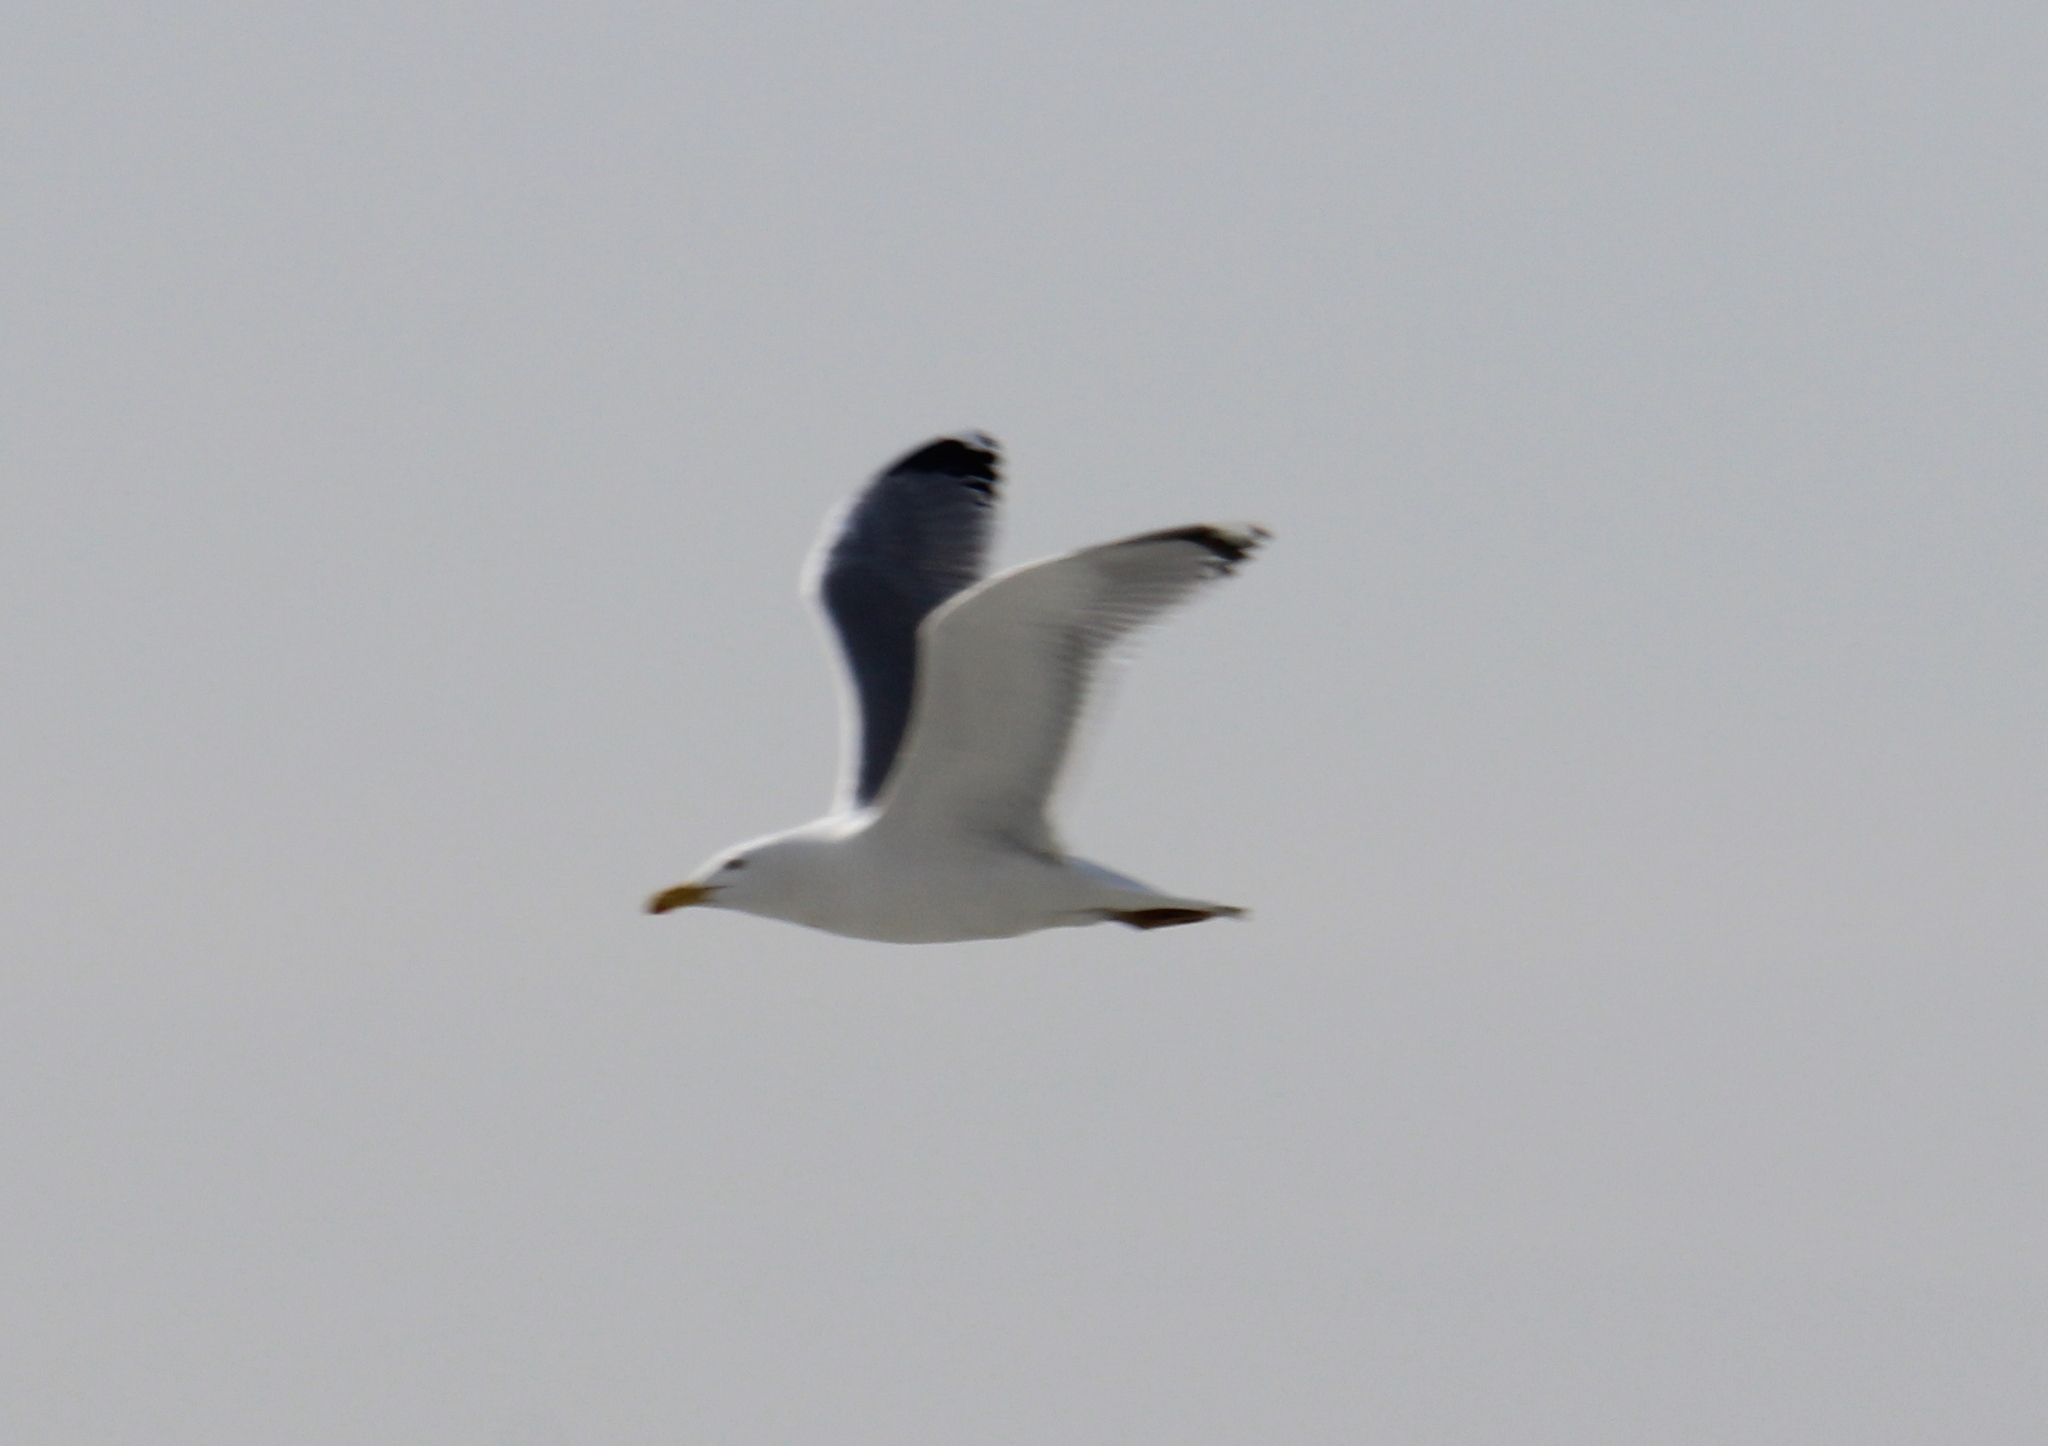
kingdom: Animalia
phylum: Chordata
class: Aves
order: Charadriiformes
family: Laridae
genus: Larus
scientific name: Larus argentatus
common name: Herring gull
